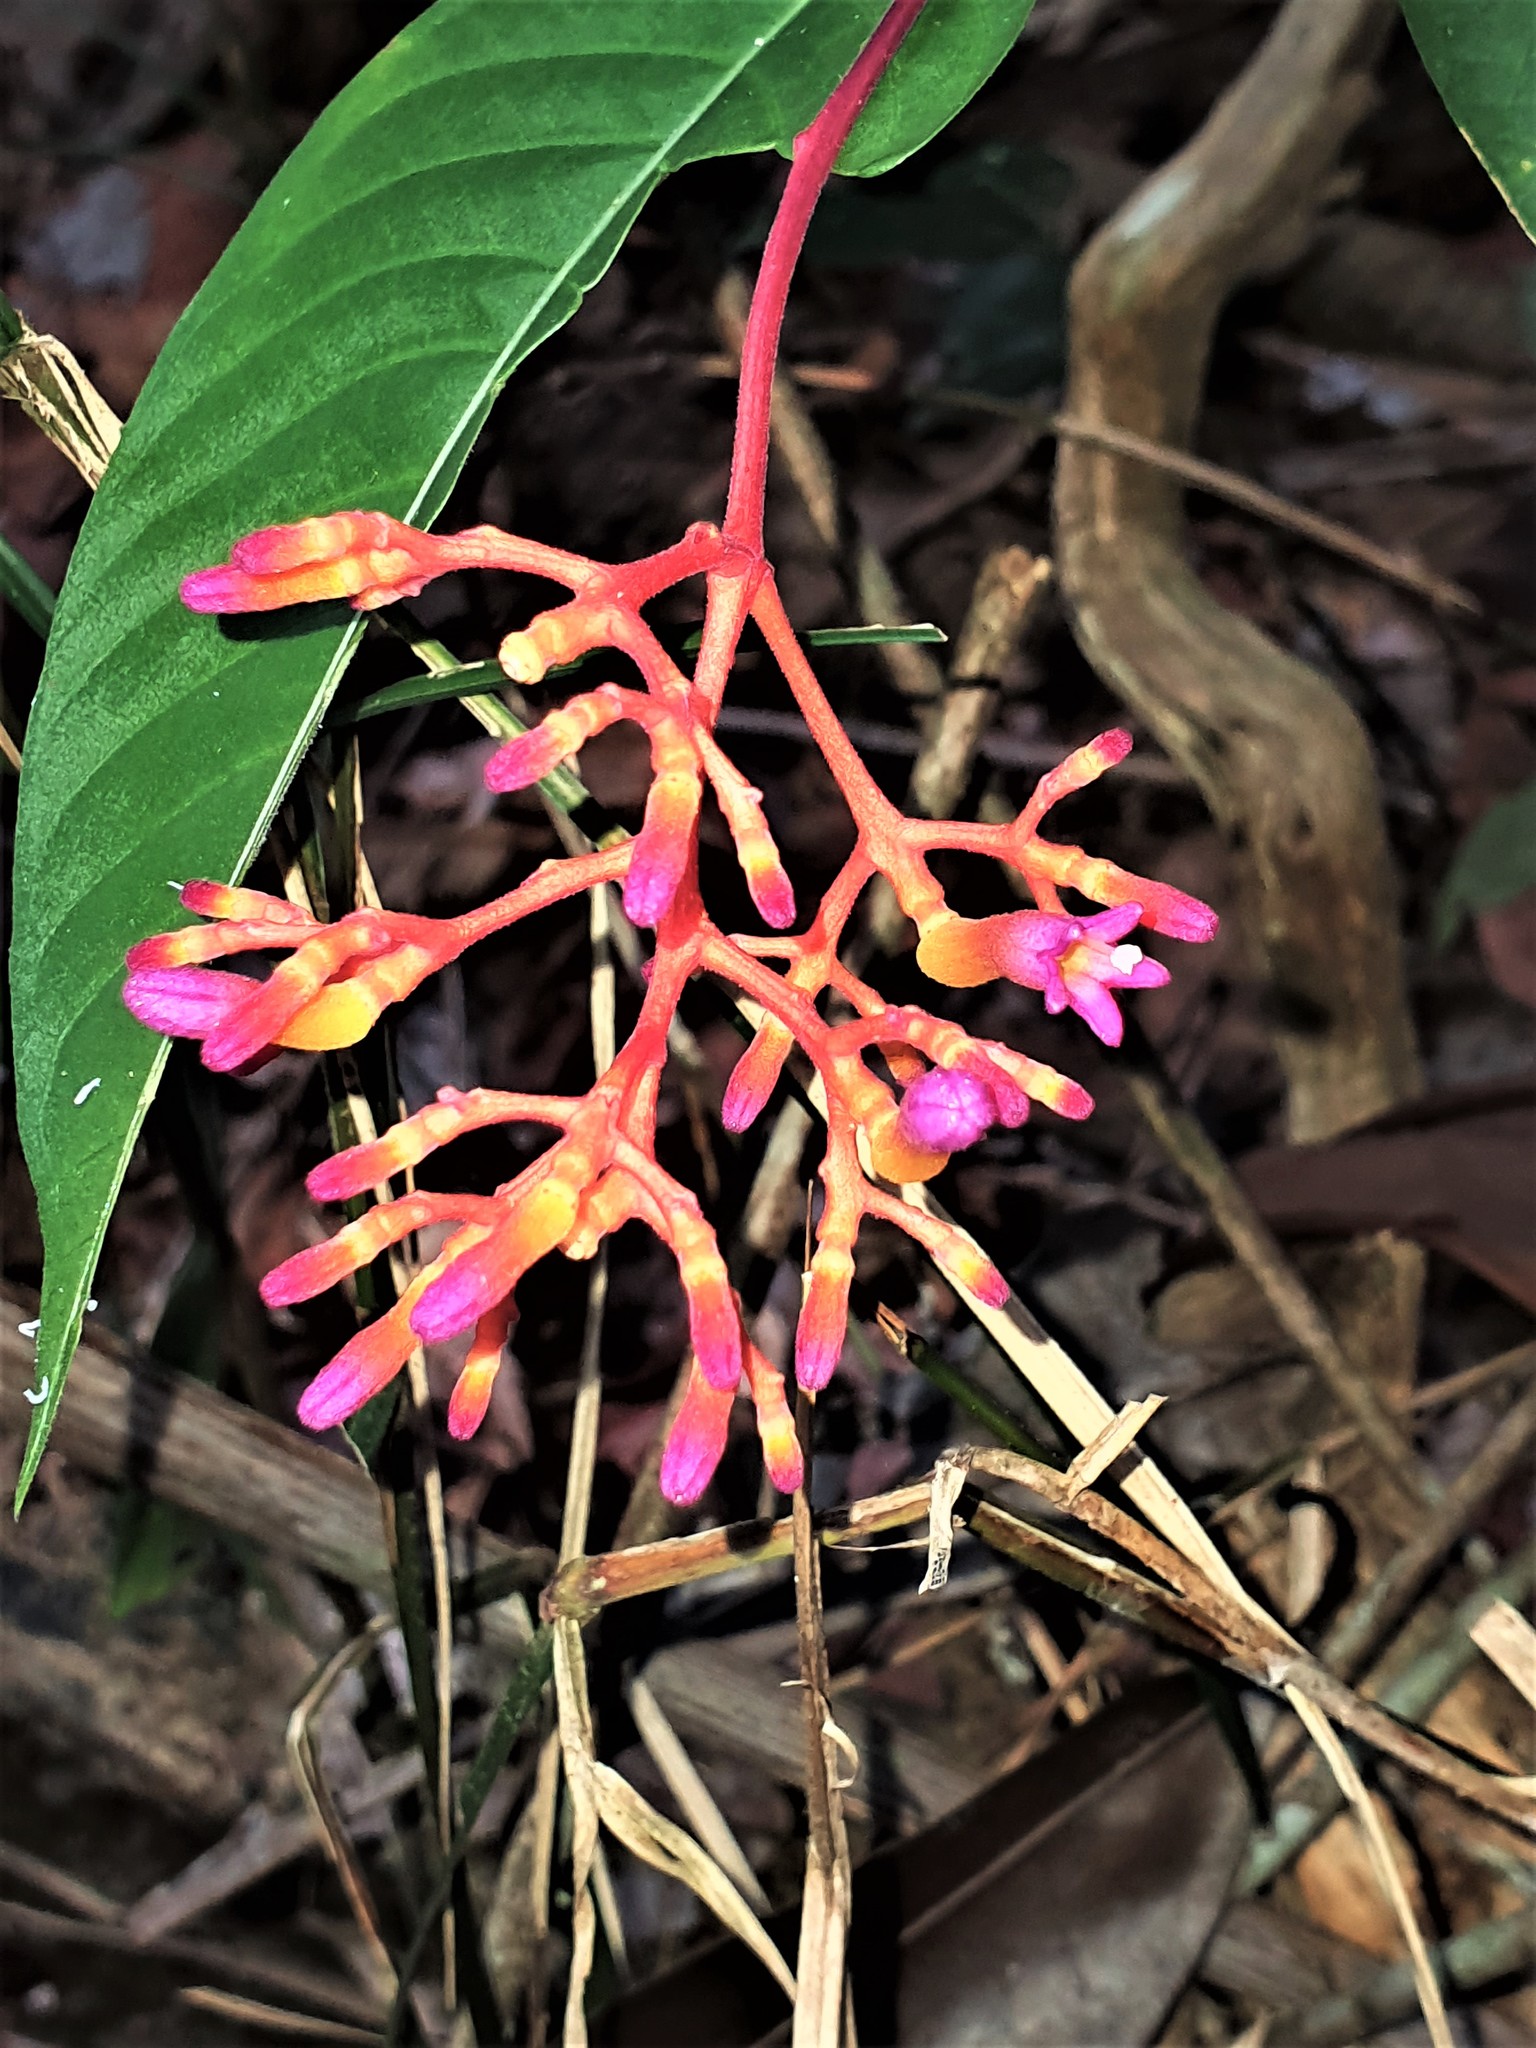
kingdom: Plantae
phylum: Tracheophyta
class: Magnoliopsida
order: Gentianales
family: Rubiaceae
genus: Palicourea
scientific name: Palicourea longiflora
